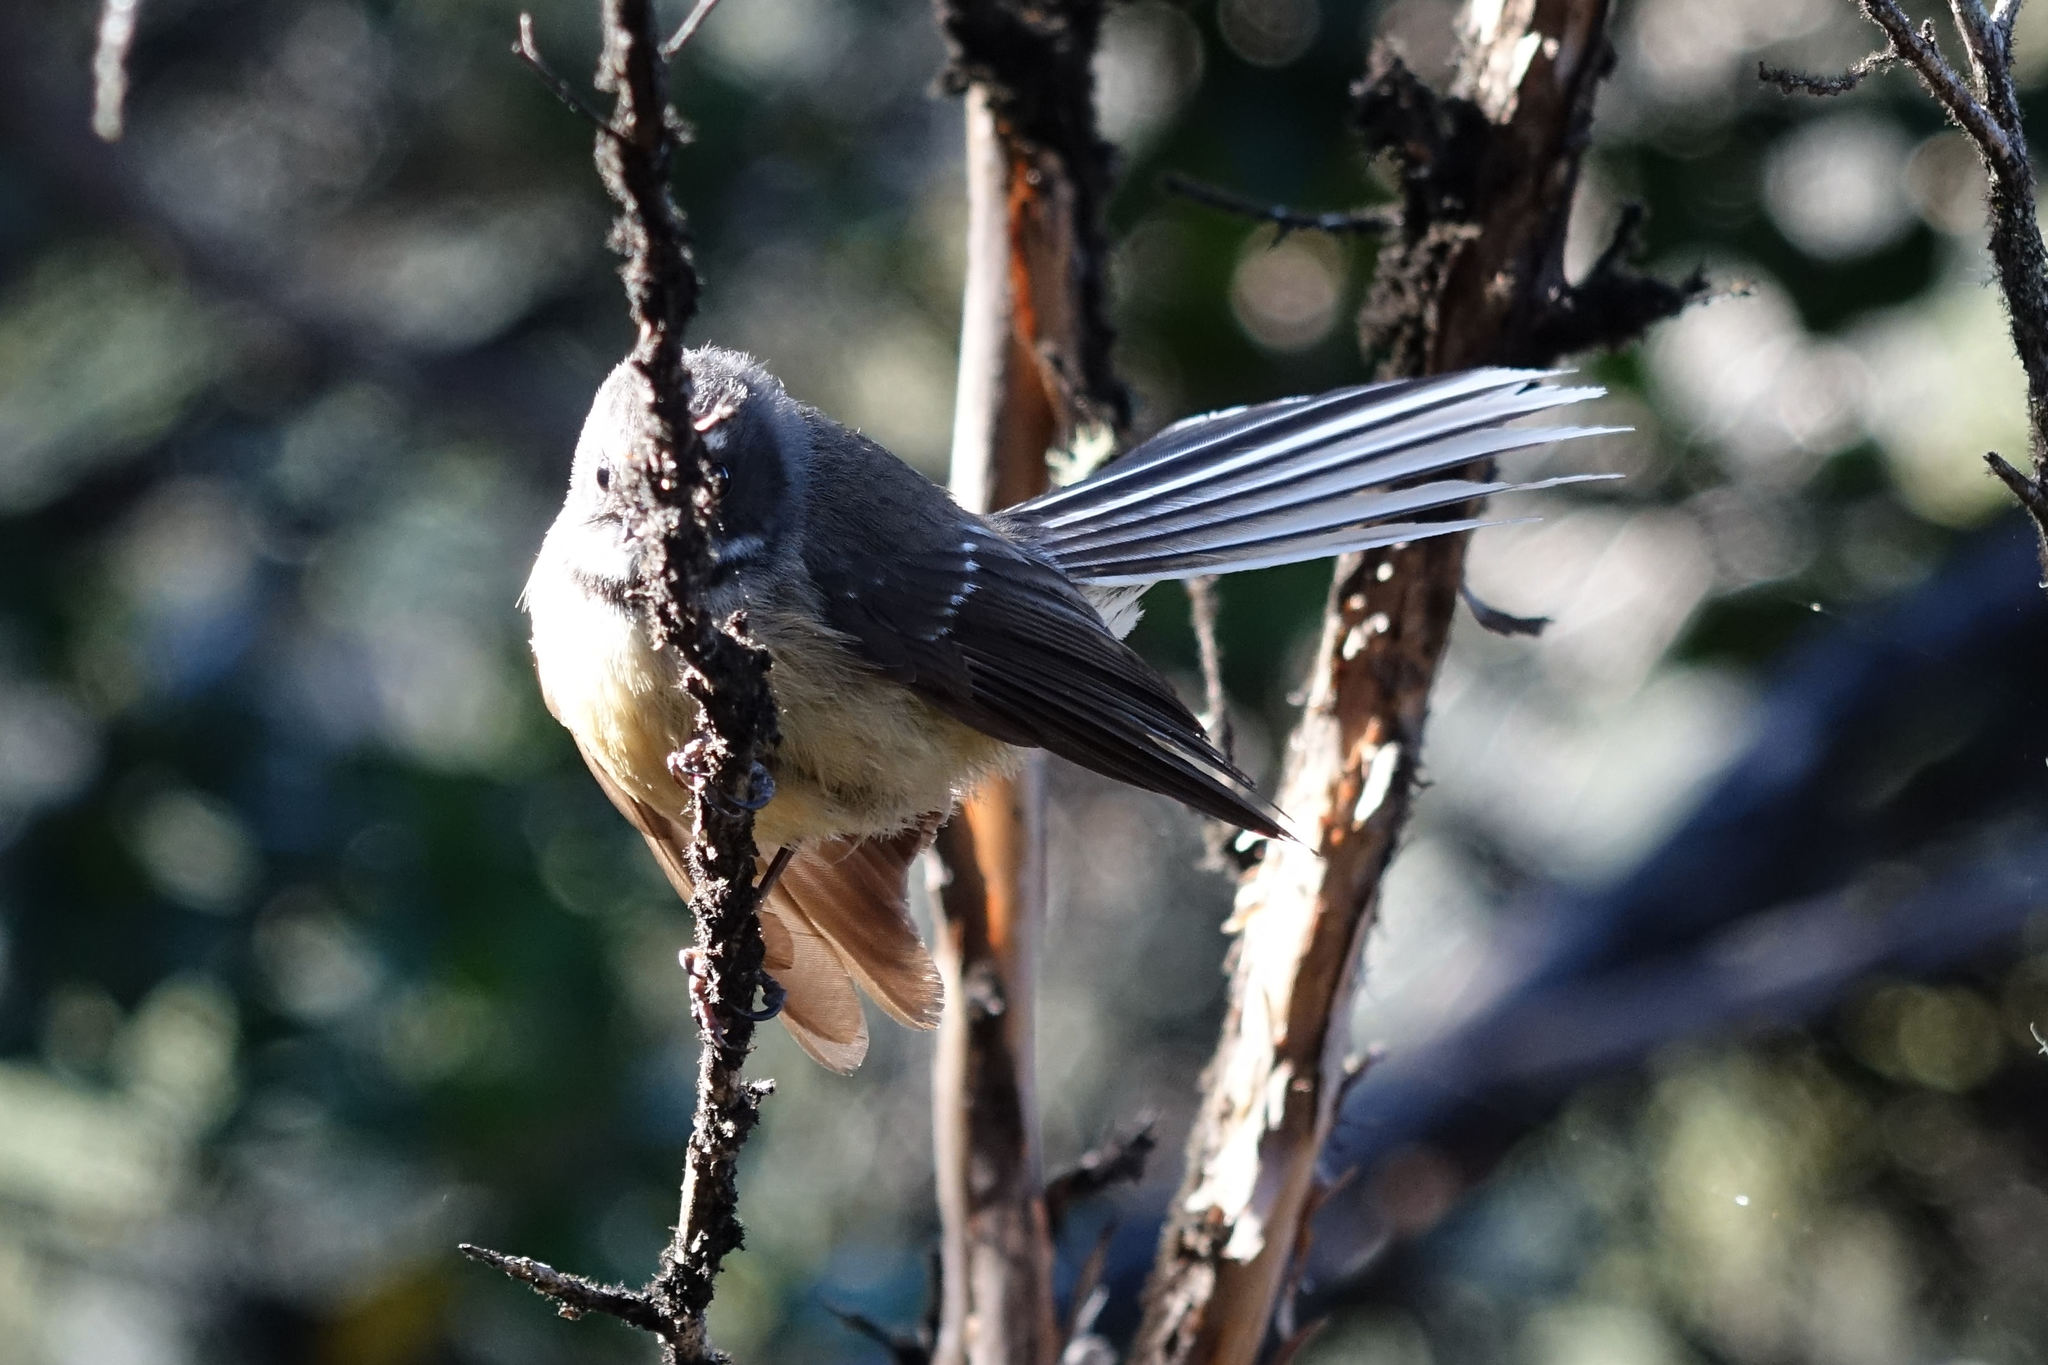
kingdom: Animalia
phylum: Chordata
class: Aves
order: Passeriformes
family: Rhipiduridae
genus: Rhipidura
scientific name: Rhipidura fuliginosa
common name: New zealand fantail
